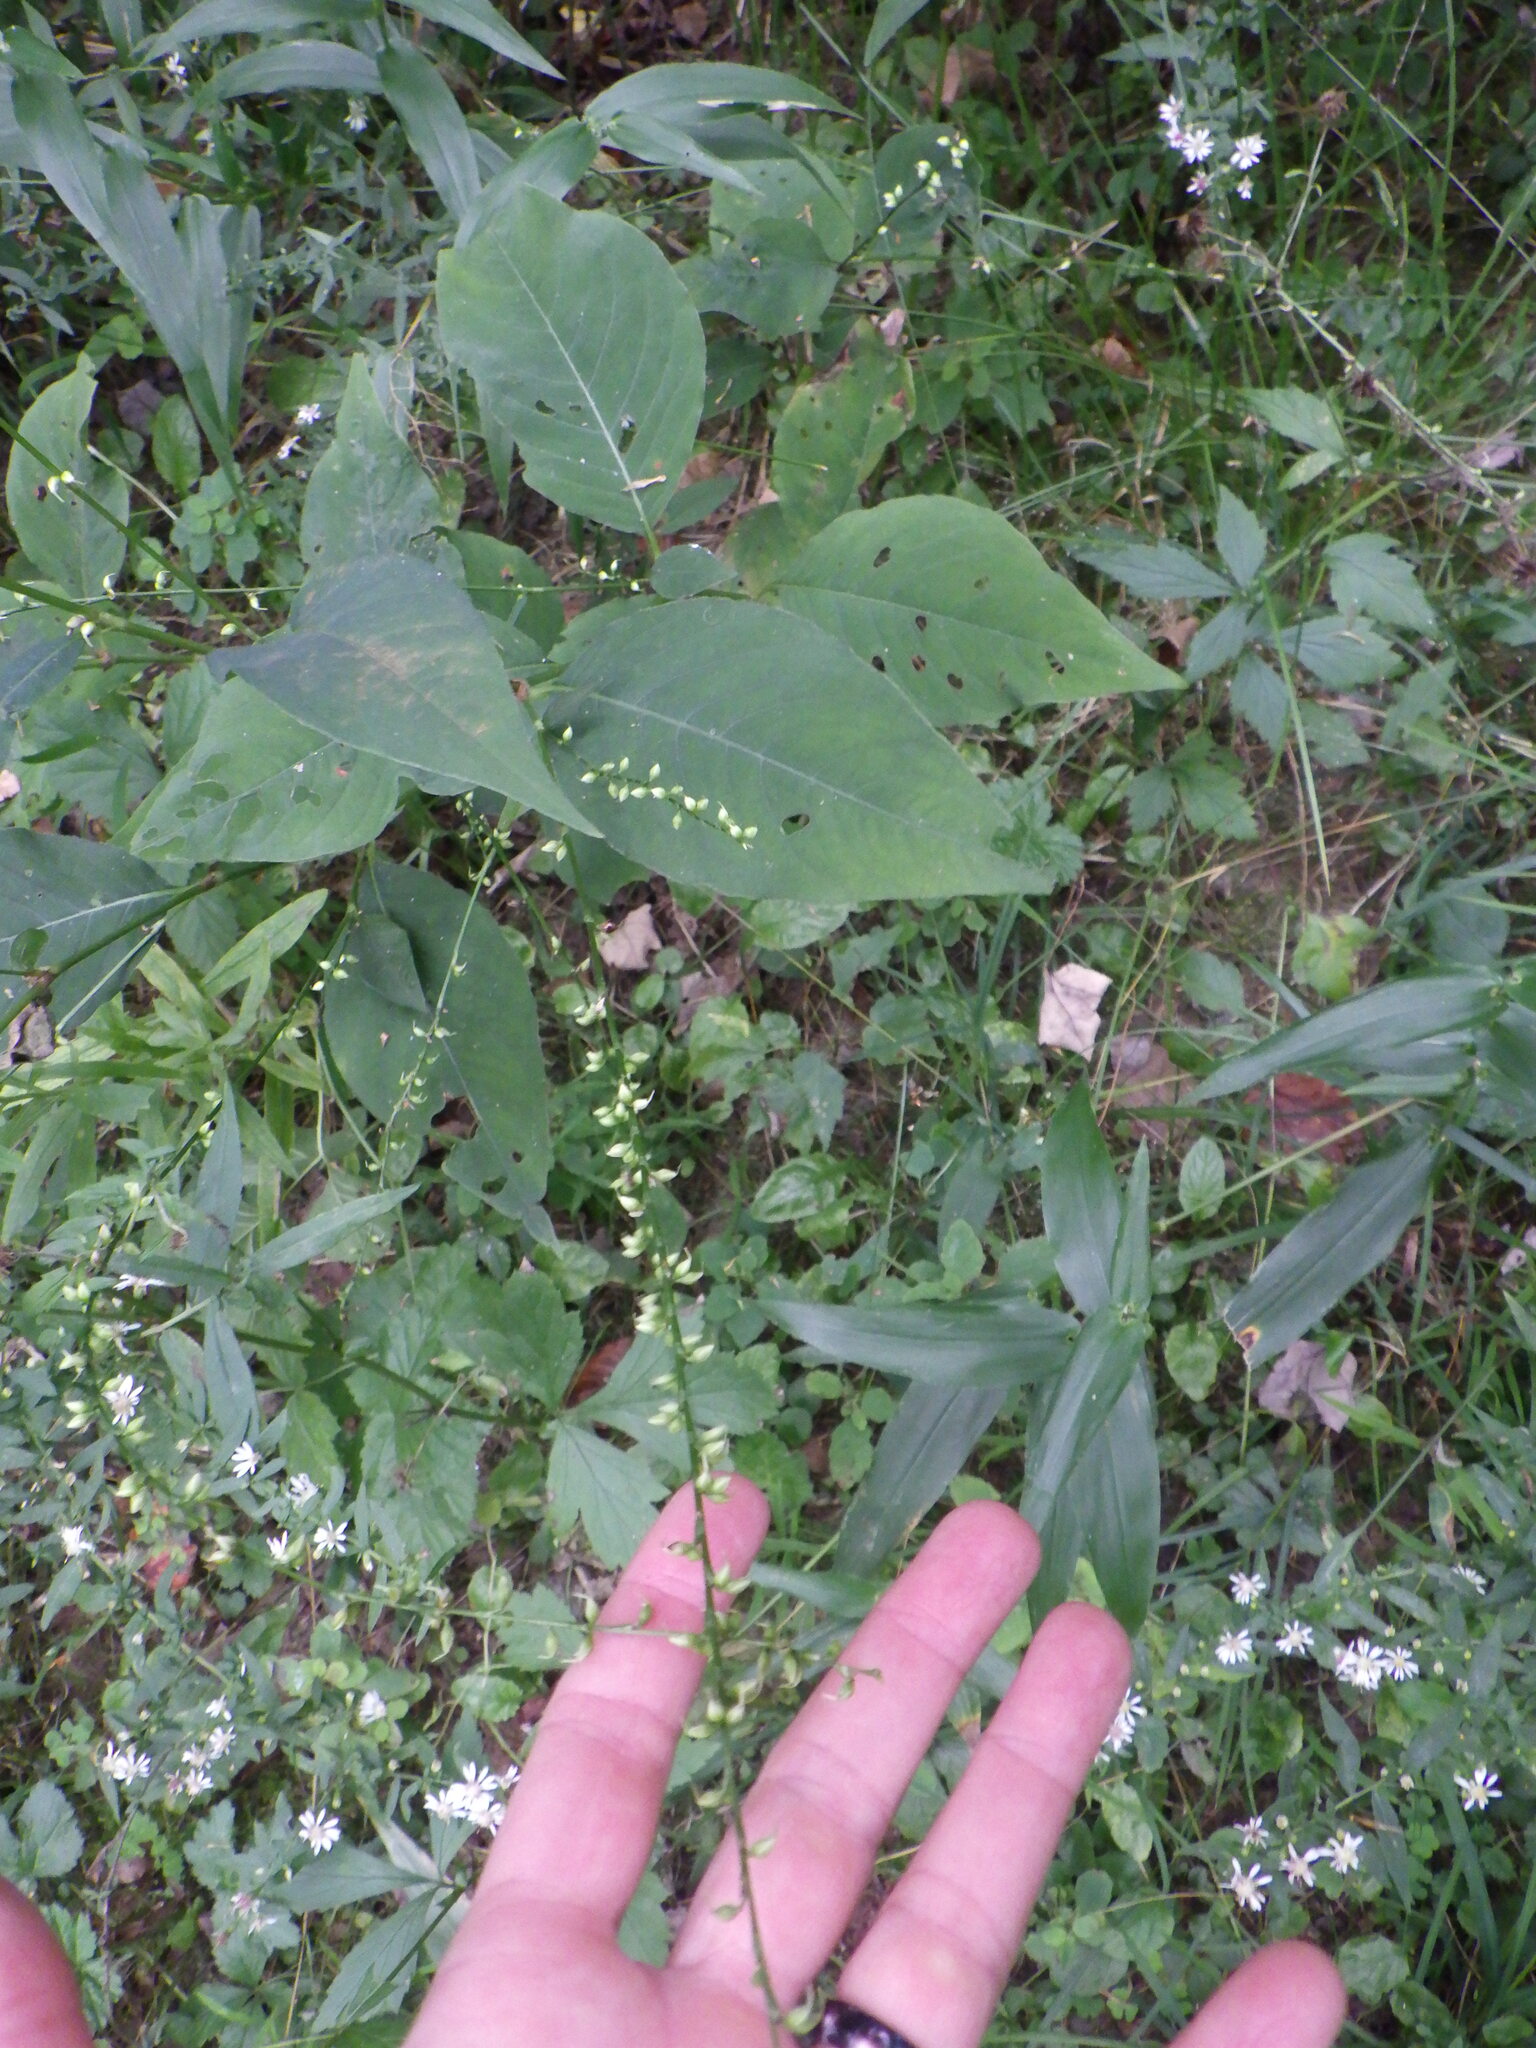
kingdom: Plantae
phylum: Tracheophyta
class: Magnoliopsida
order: Caryophyllales
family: Polygonaceae
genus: Persicaria
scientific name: Persicaria virginiana
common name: Jumpseed
